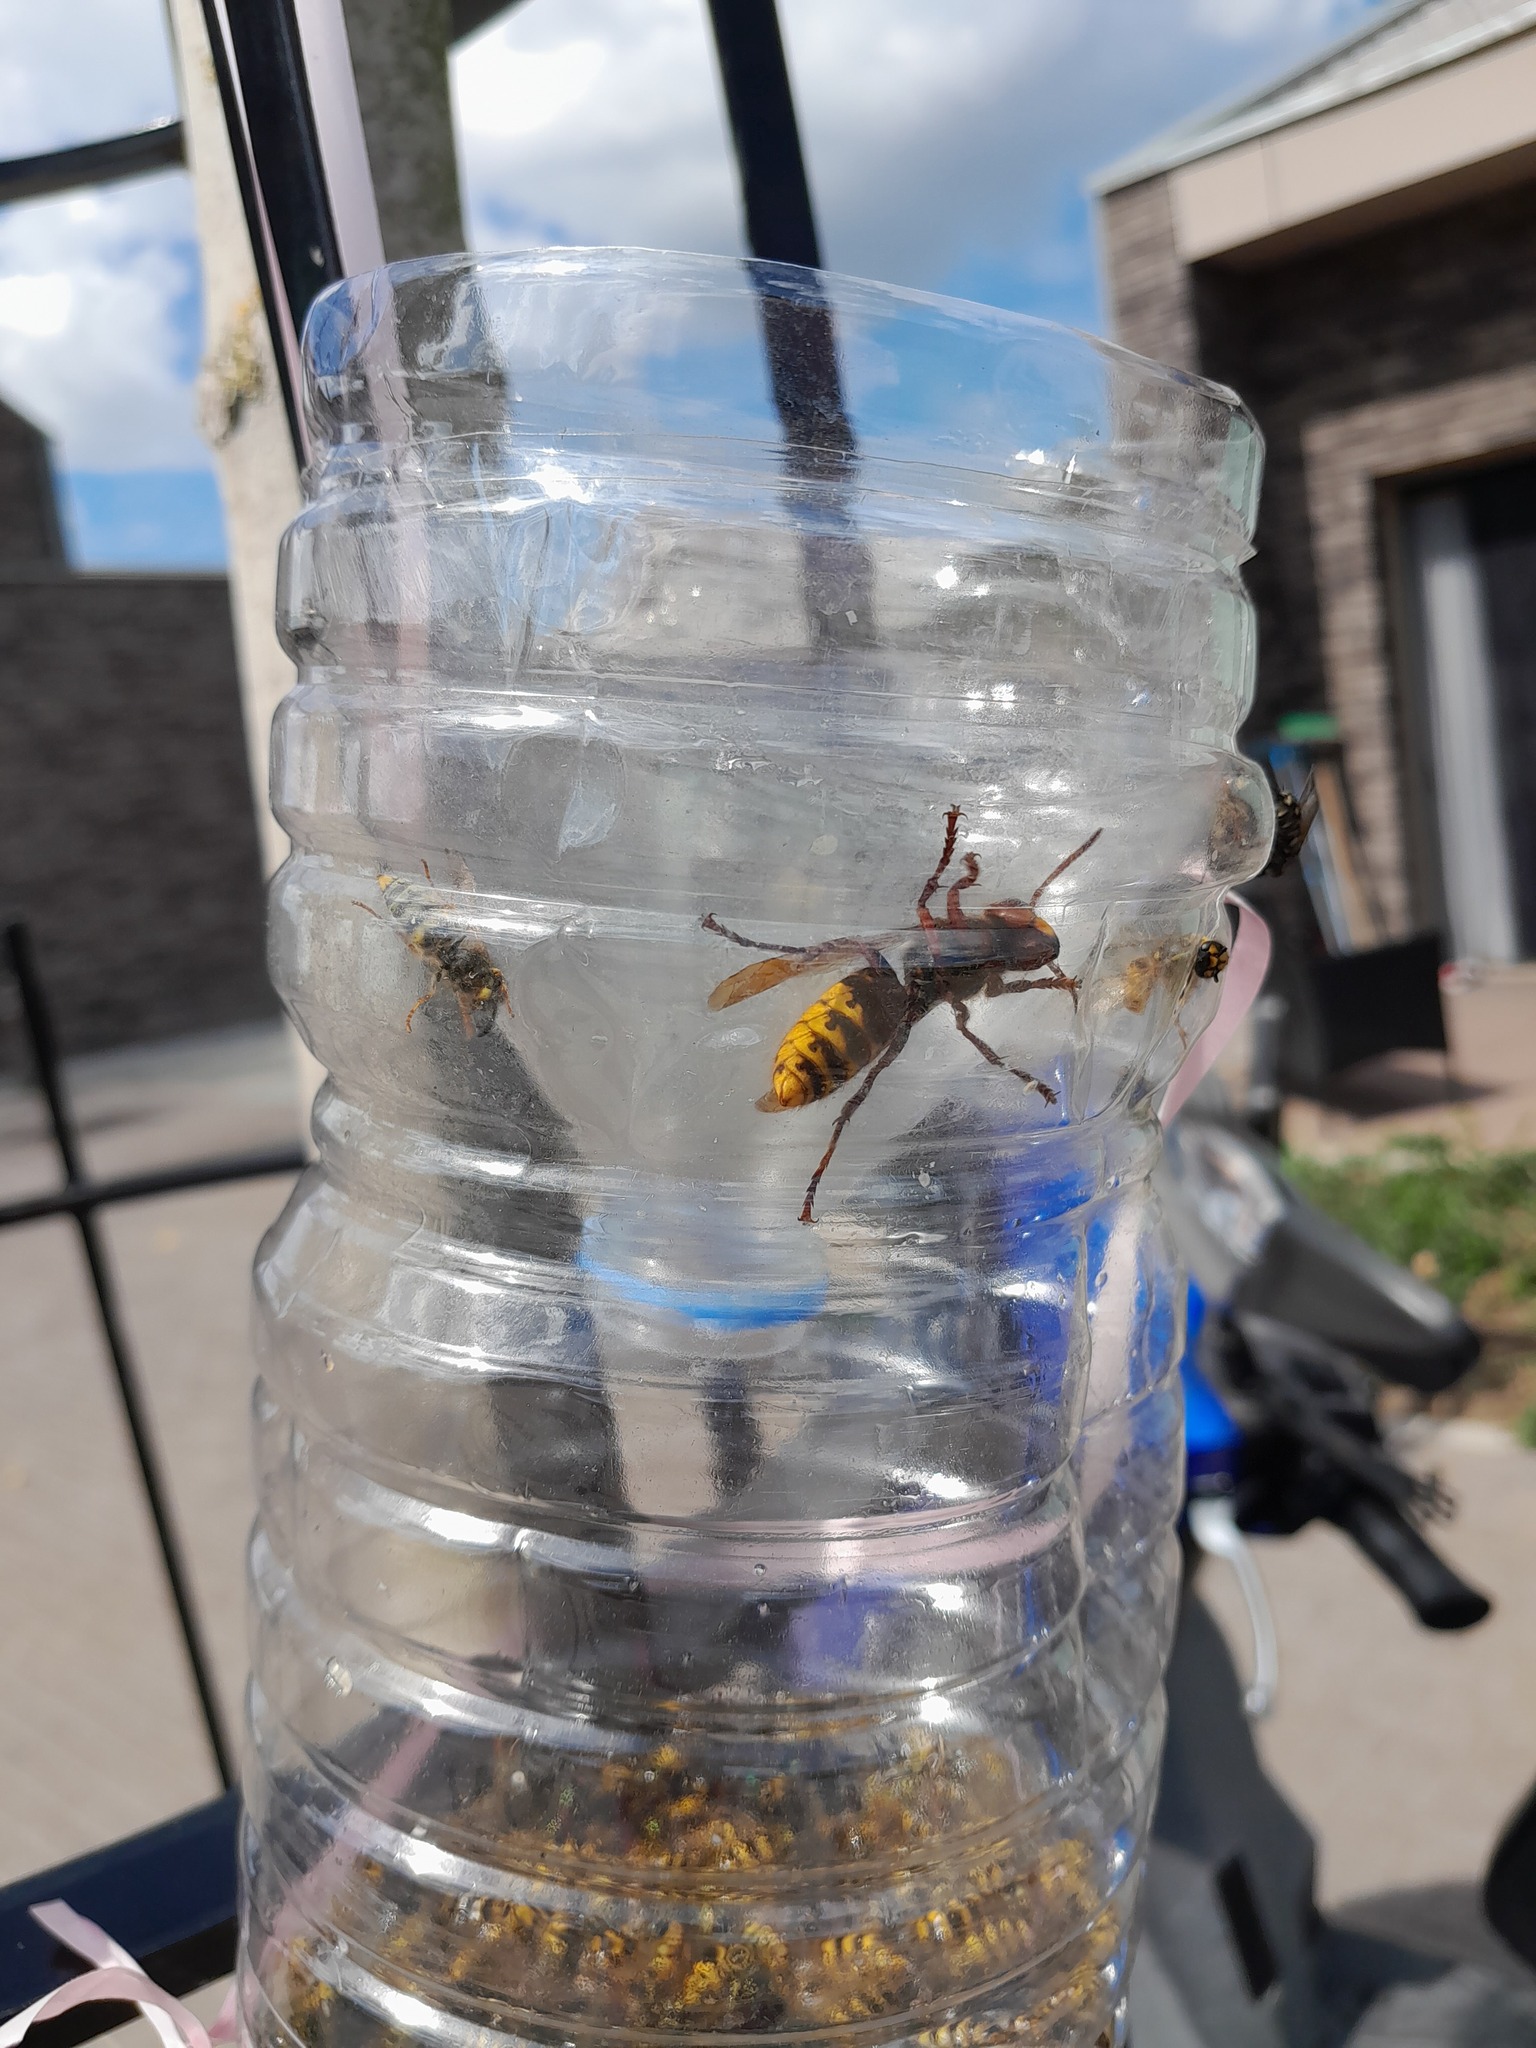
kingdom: Animalia
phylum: Arthropoda
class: Insecta
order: Hymenoptera
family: Vespidae
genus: Vespa
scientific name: Vespa crabro
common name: Hornet
